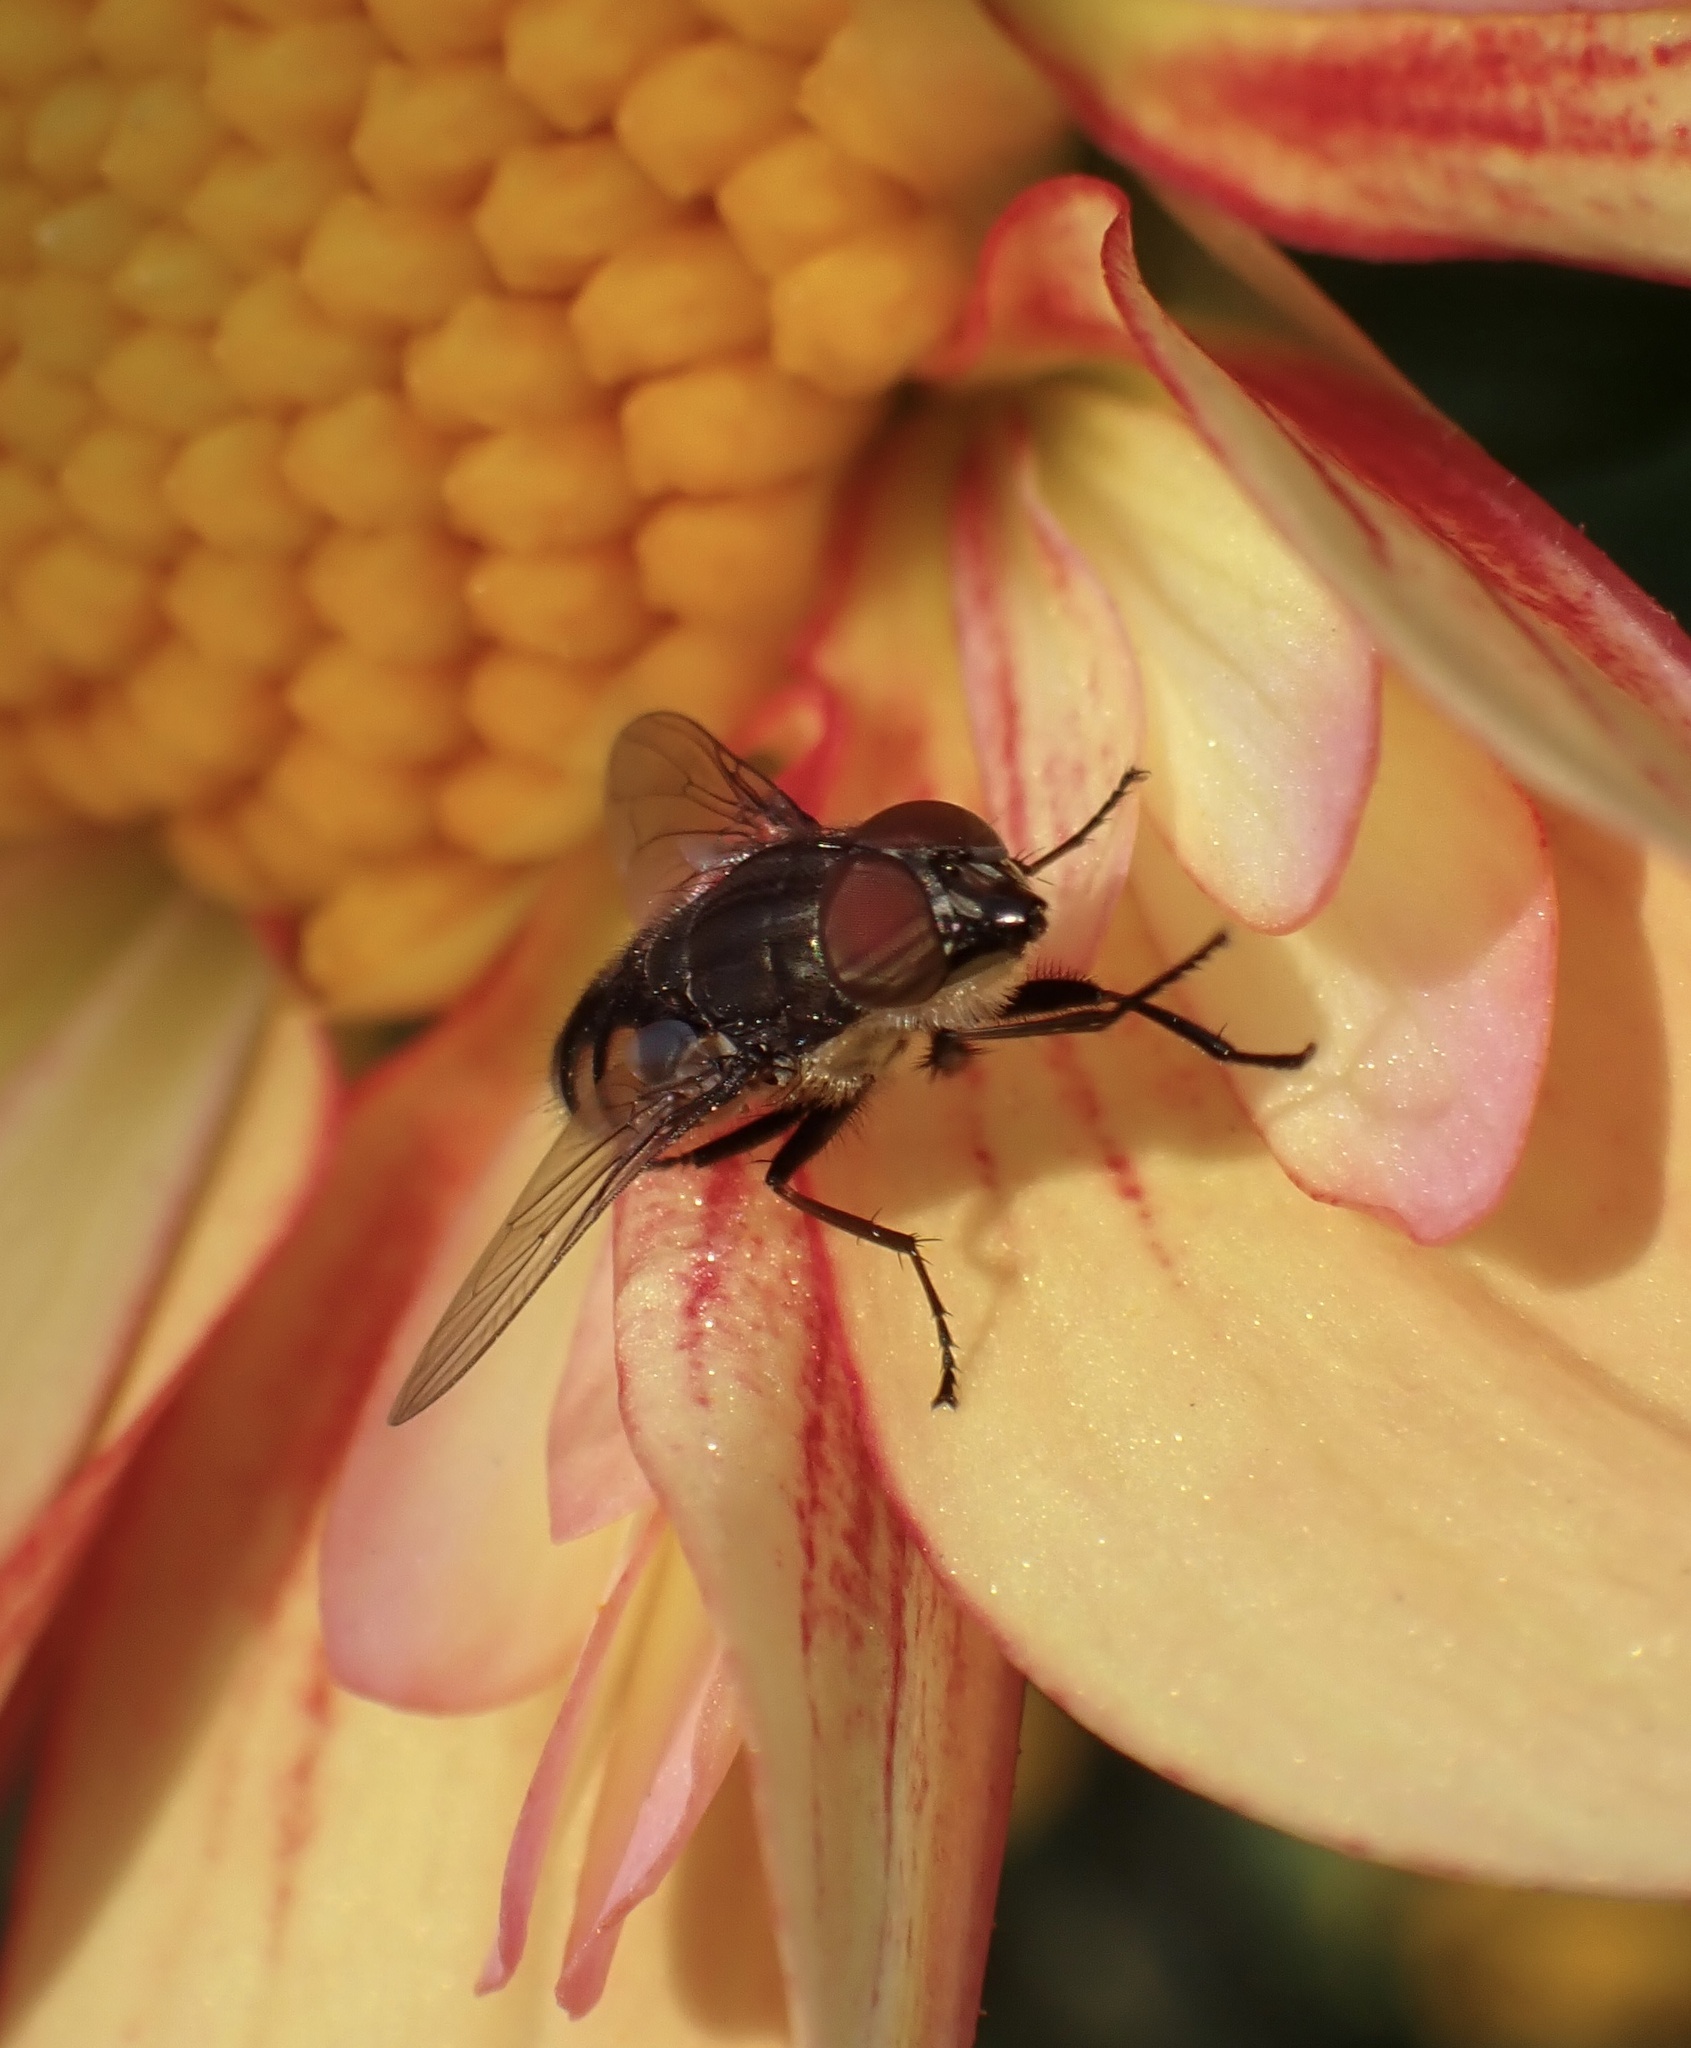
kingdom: Animalia
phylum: Arthropoda
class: Insecta
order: Diptera
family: Calliphoridae
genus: Stomorhina
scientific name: Stomorhina lunata
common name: Locust blowfly
